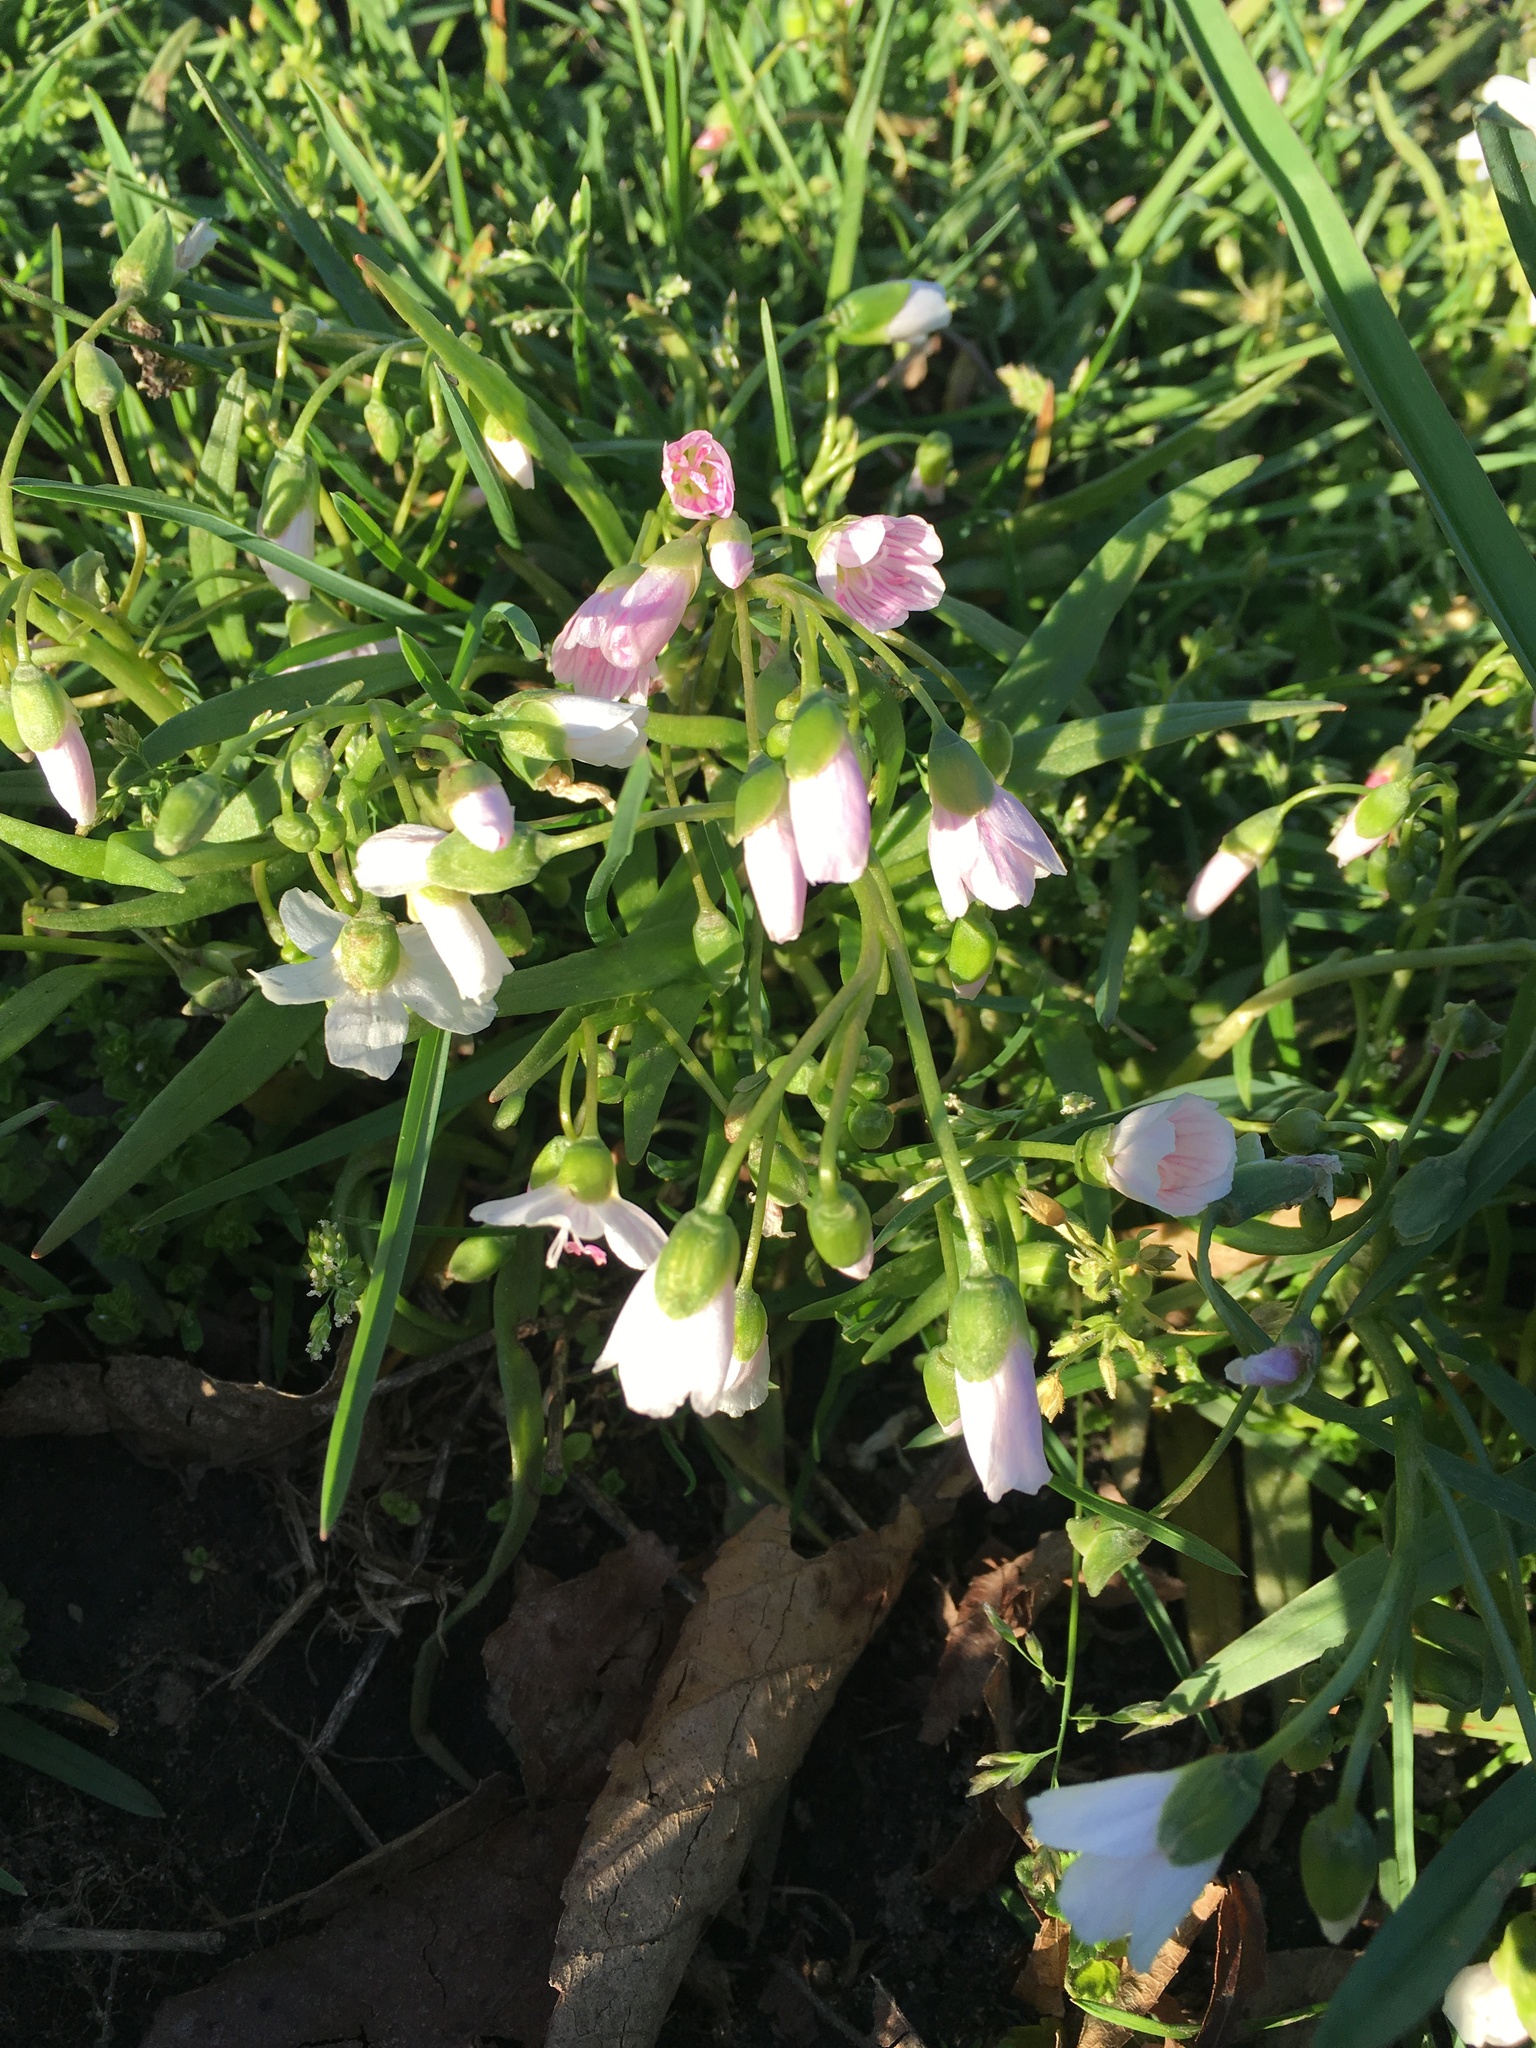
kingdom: Plantae
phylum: Tracheophyta
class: Magnoliopsida
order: Brassicales
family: Brassicaceae
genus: Cardamine
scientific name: Cardamine concatenata
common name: Cut-leaf toothcup
